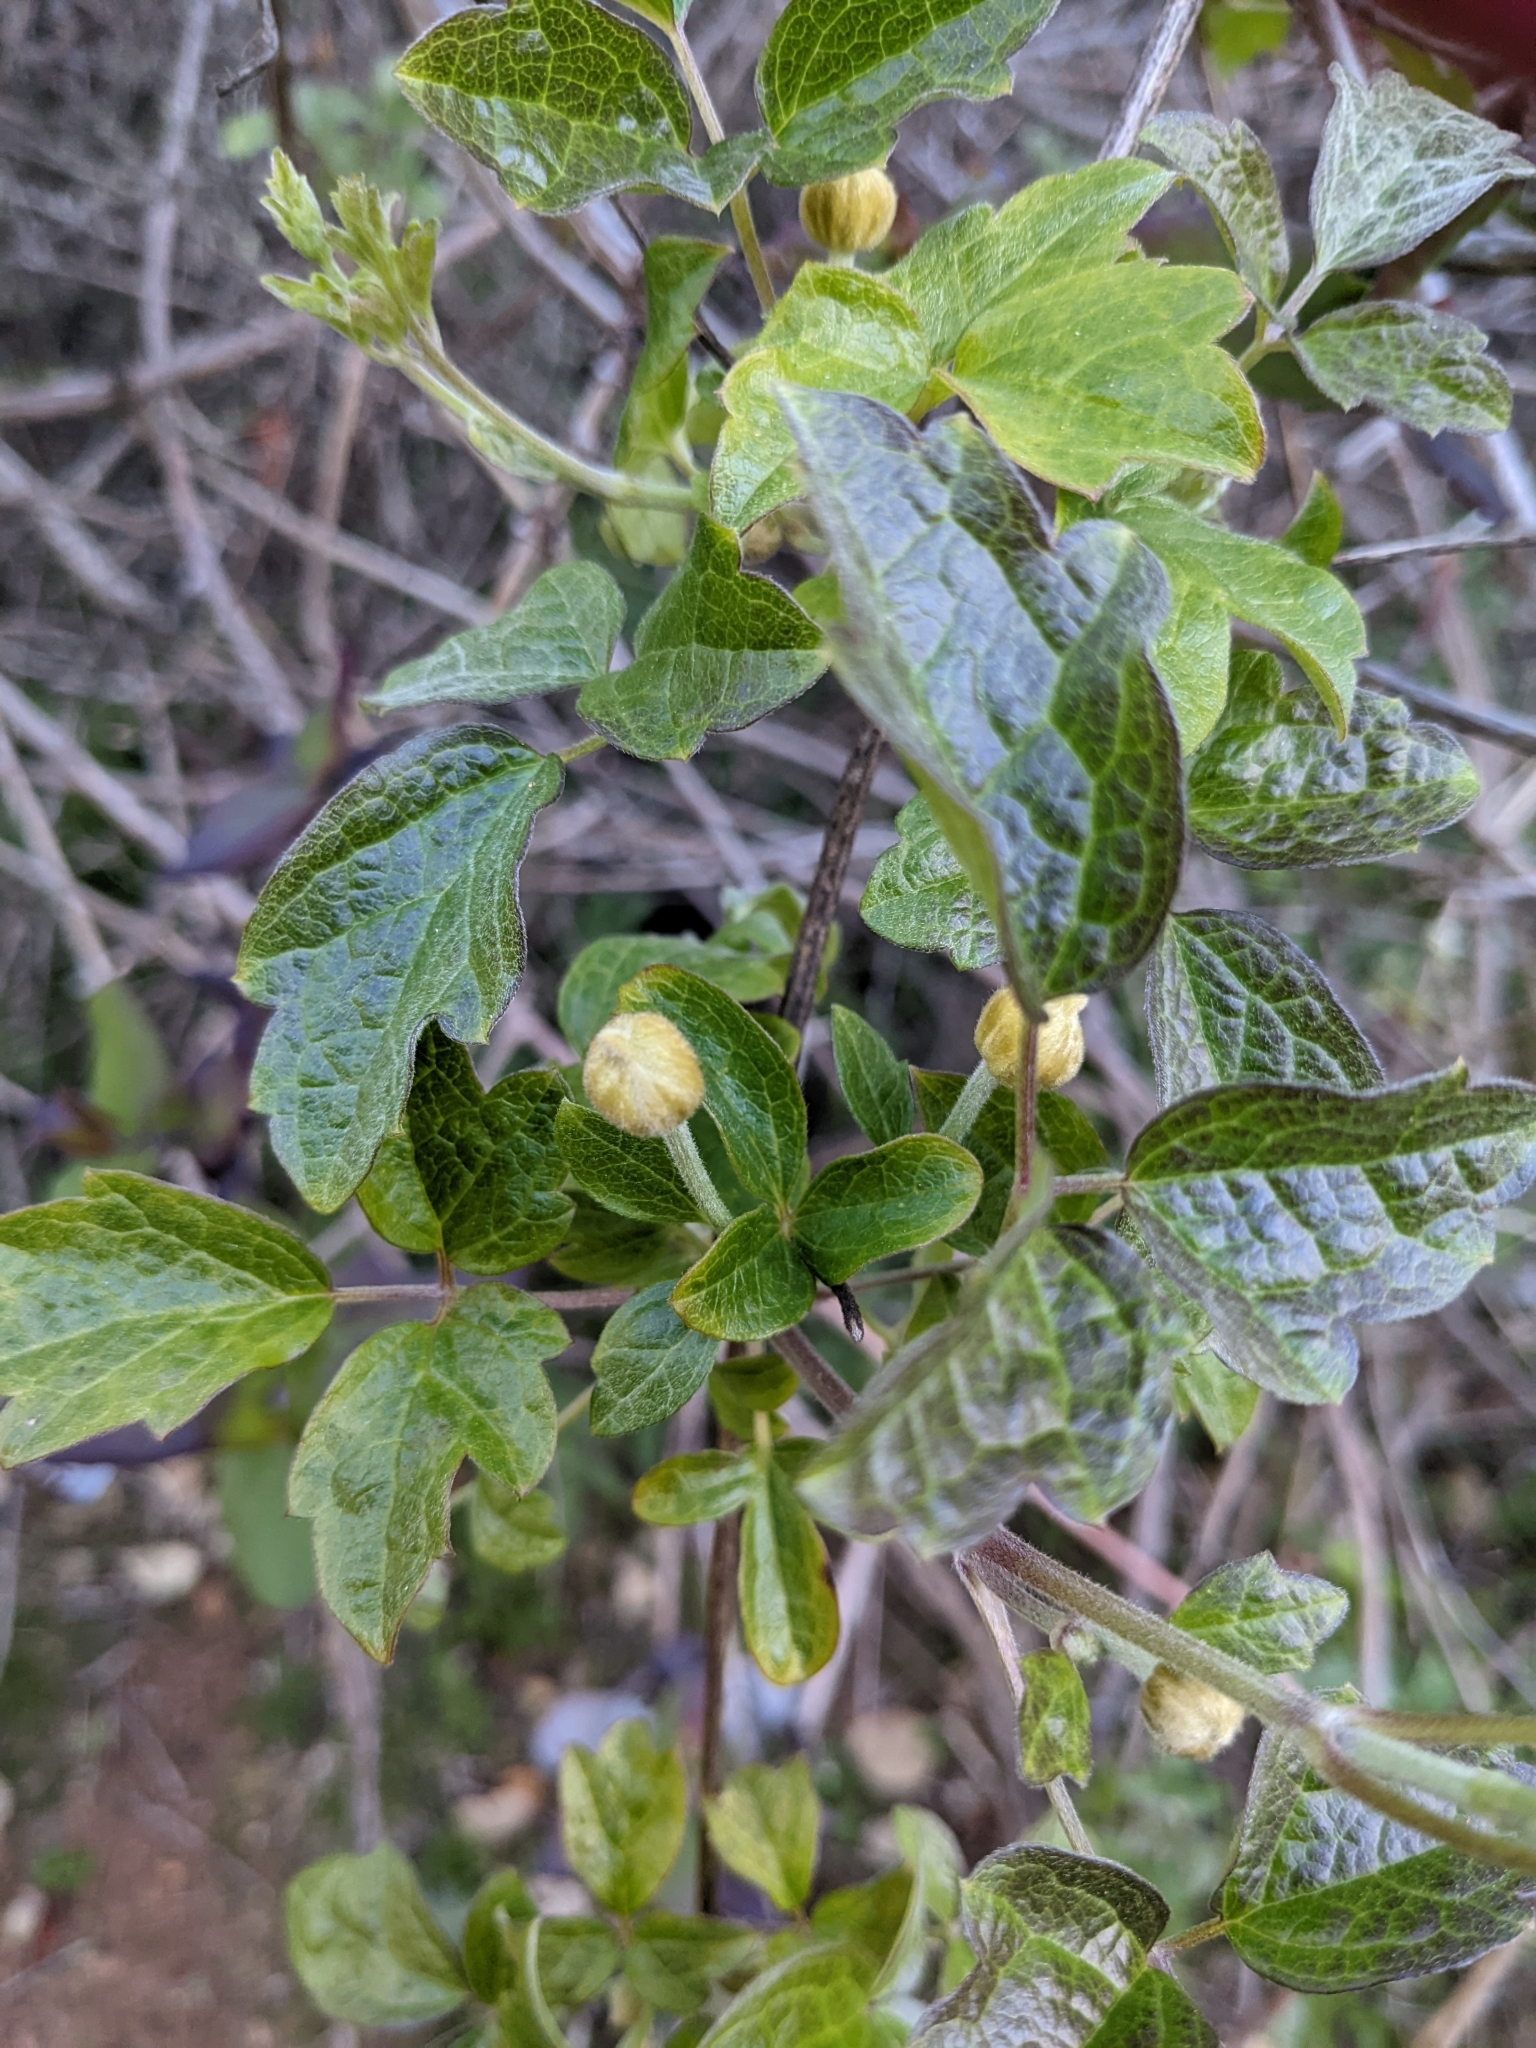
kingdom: Plantae
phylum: Tracheophyta
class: Magnoliopsida
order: Ranunculales
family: Ranunculaceae
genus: Clematis
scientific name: Clematis lasiantha
